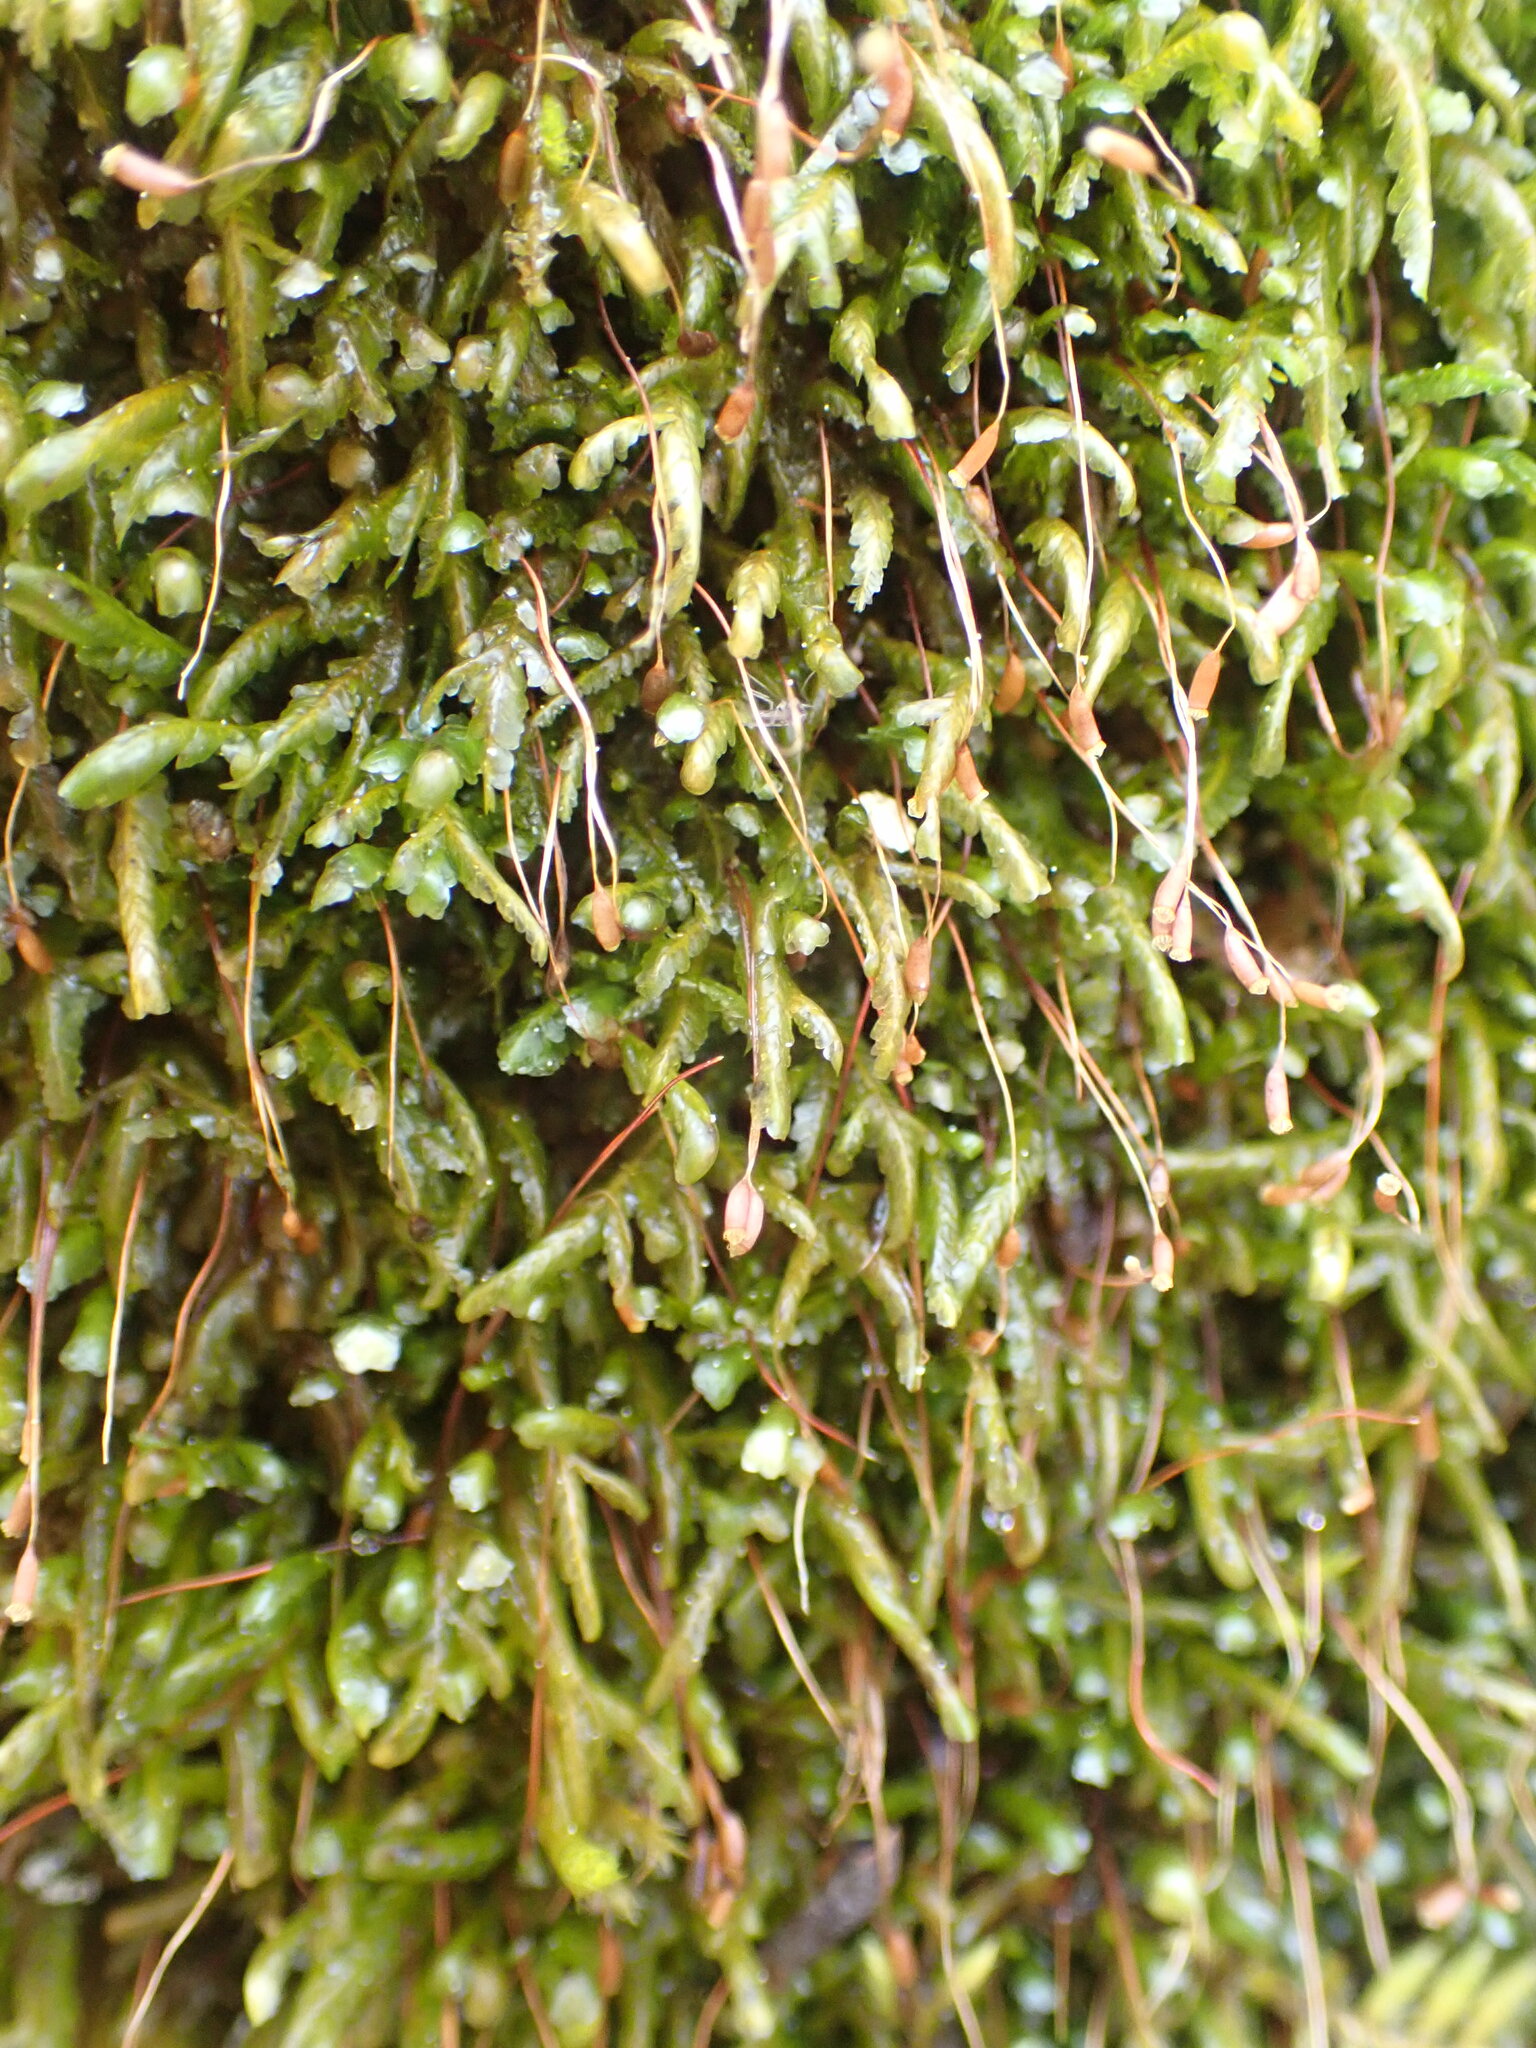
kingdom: Plantae
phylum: Bryophyta
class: Bryopsida
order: Hypnales
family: Neckeraceae
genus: Homalia
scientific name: Homalia trichomanoides
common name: Lime homalia moss
